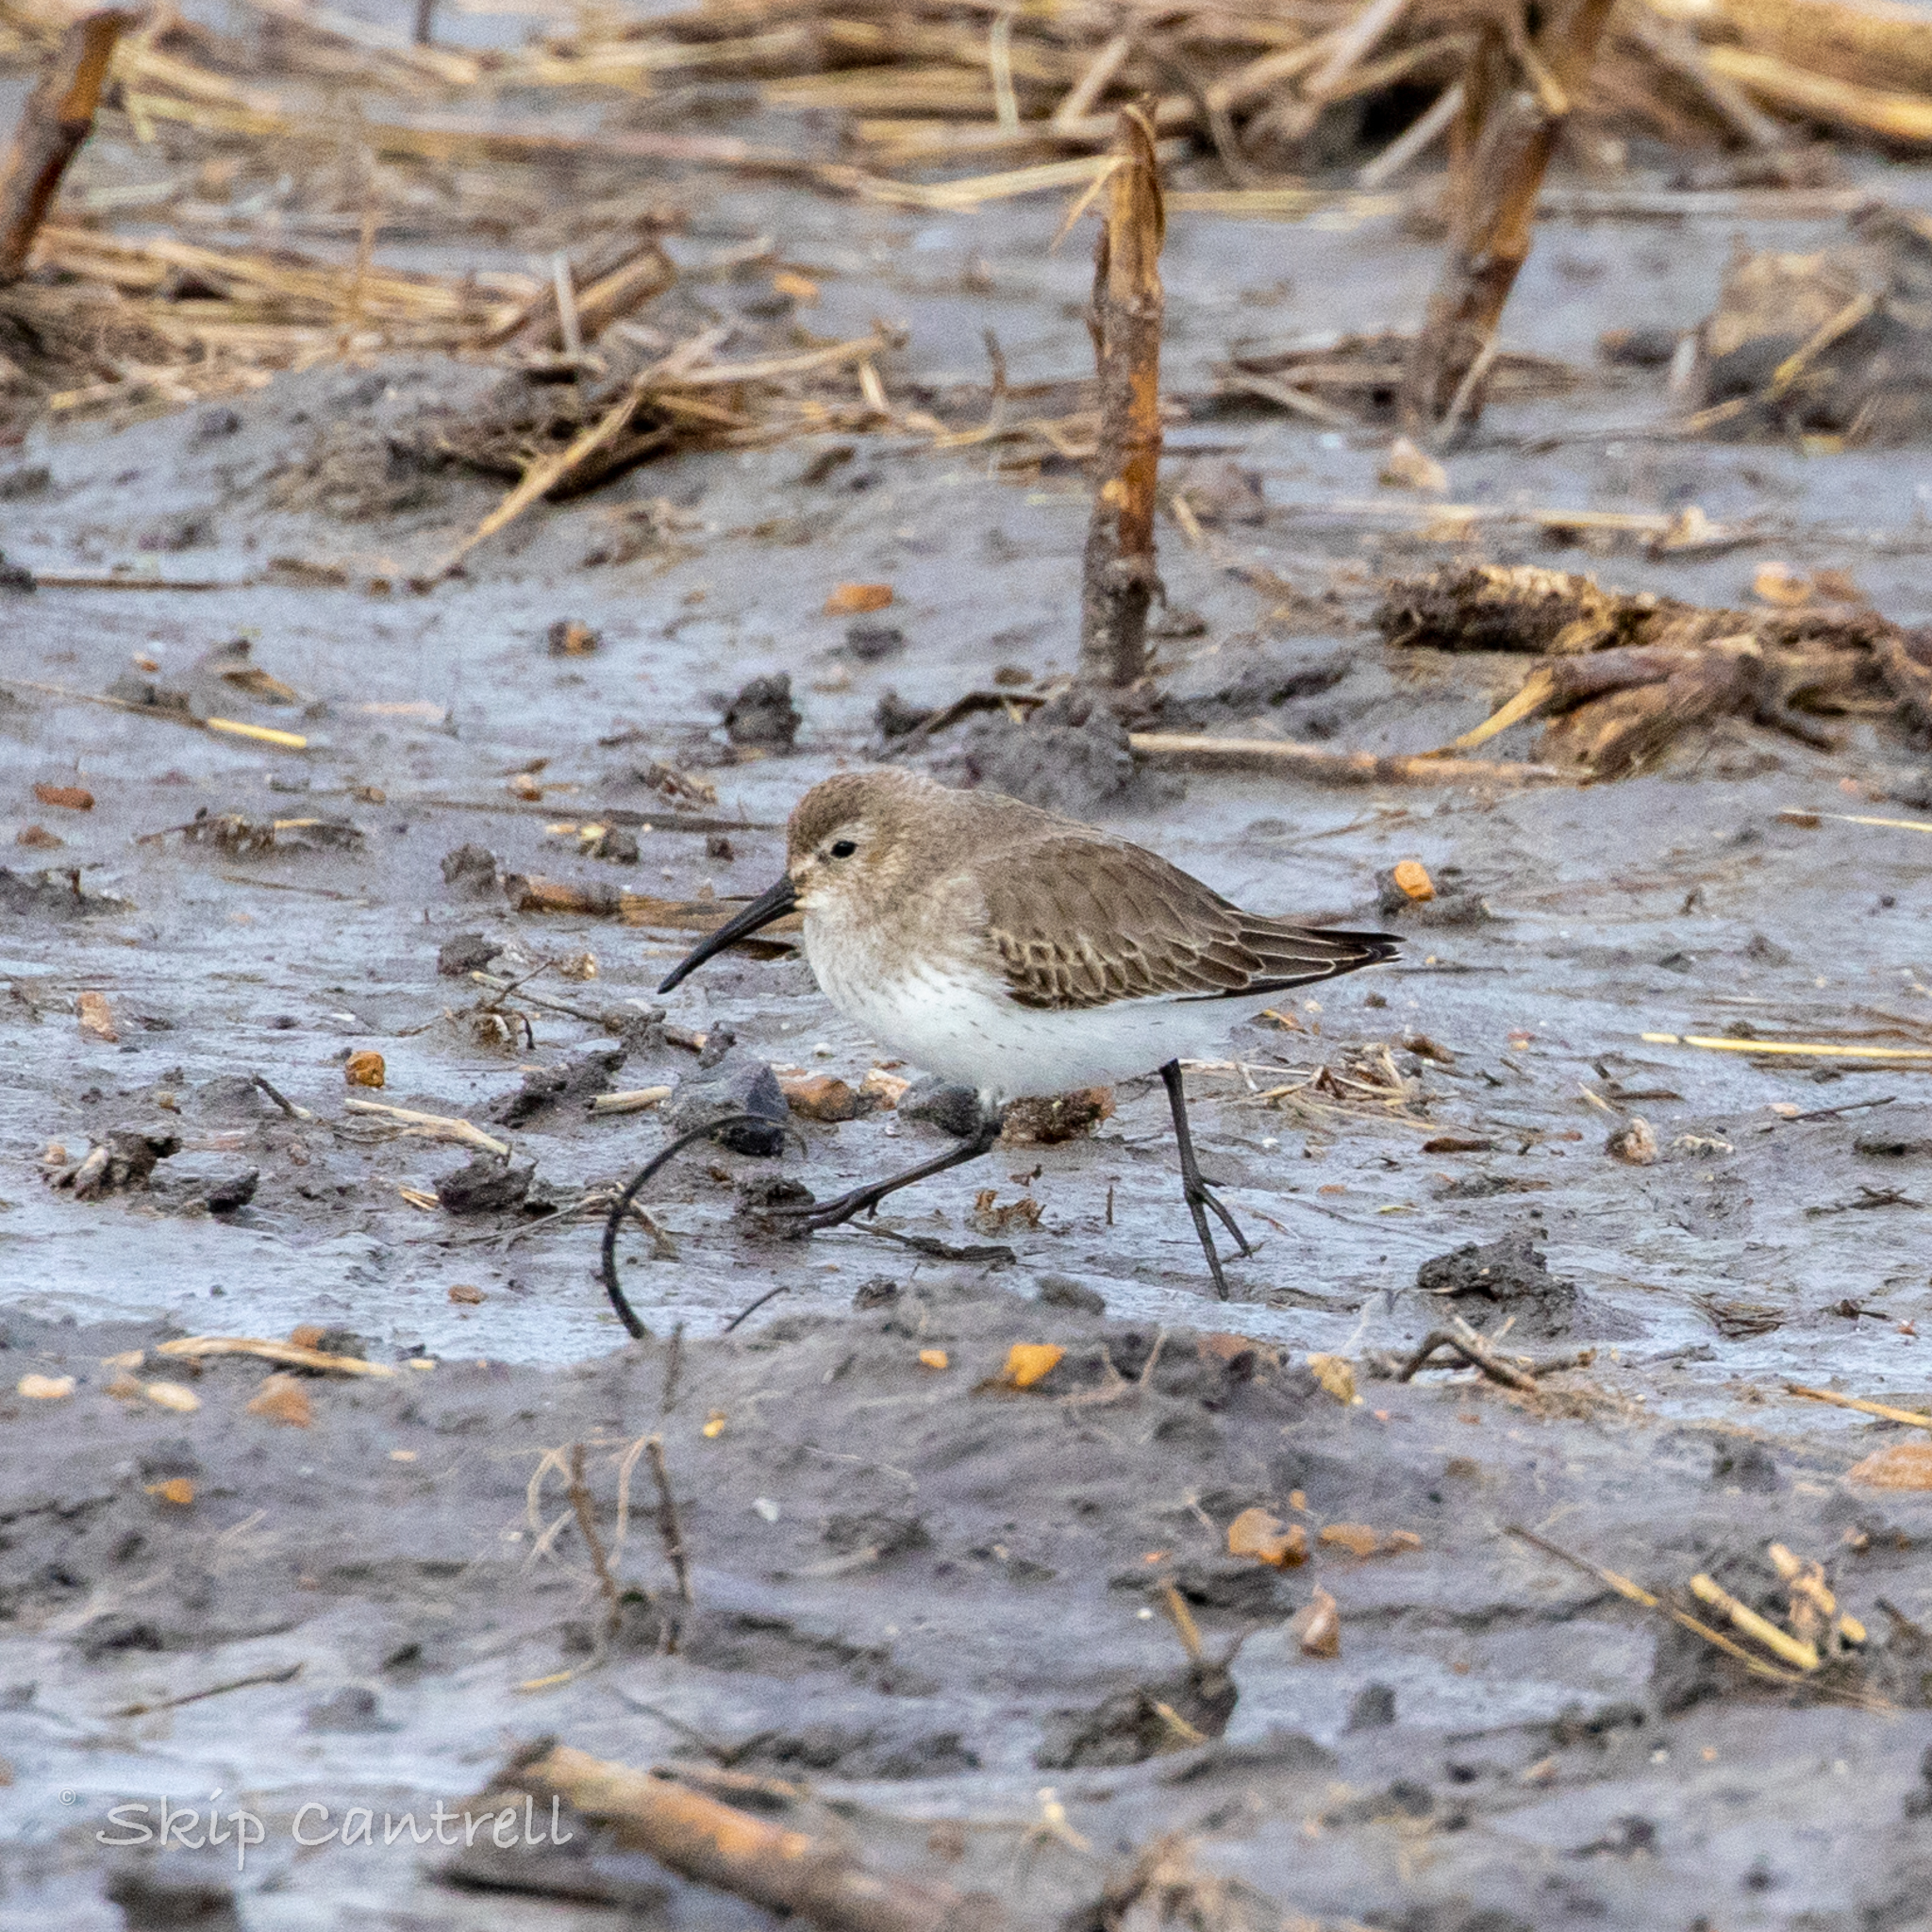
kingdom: Animalia
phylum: Chordata
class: Aves
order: Charadriiformes
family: Scolopacidae
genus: Calidris
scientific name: Calidris alpina
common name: Dunlin
